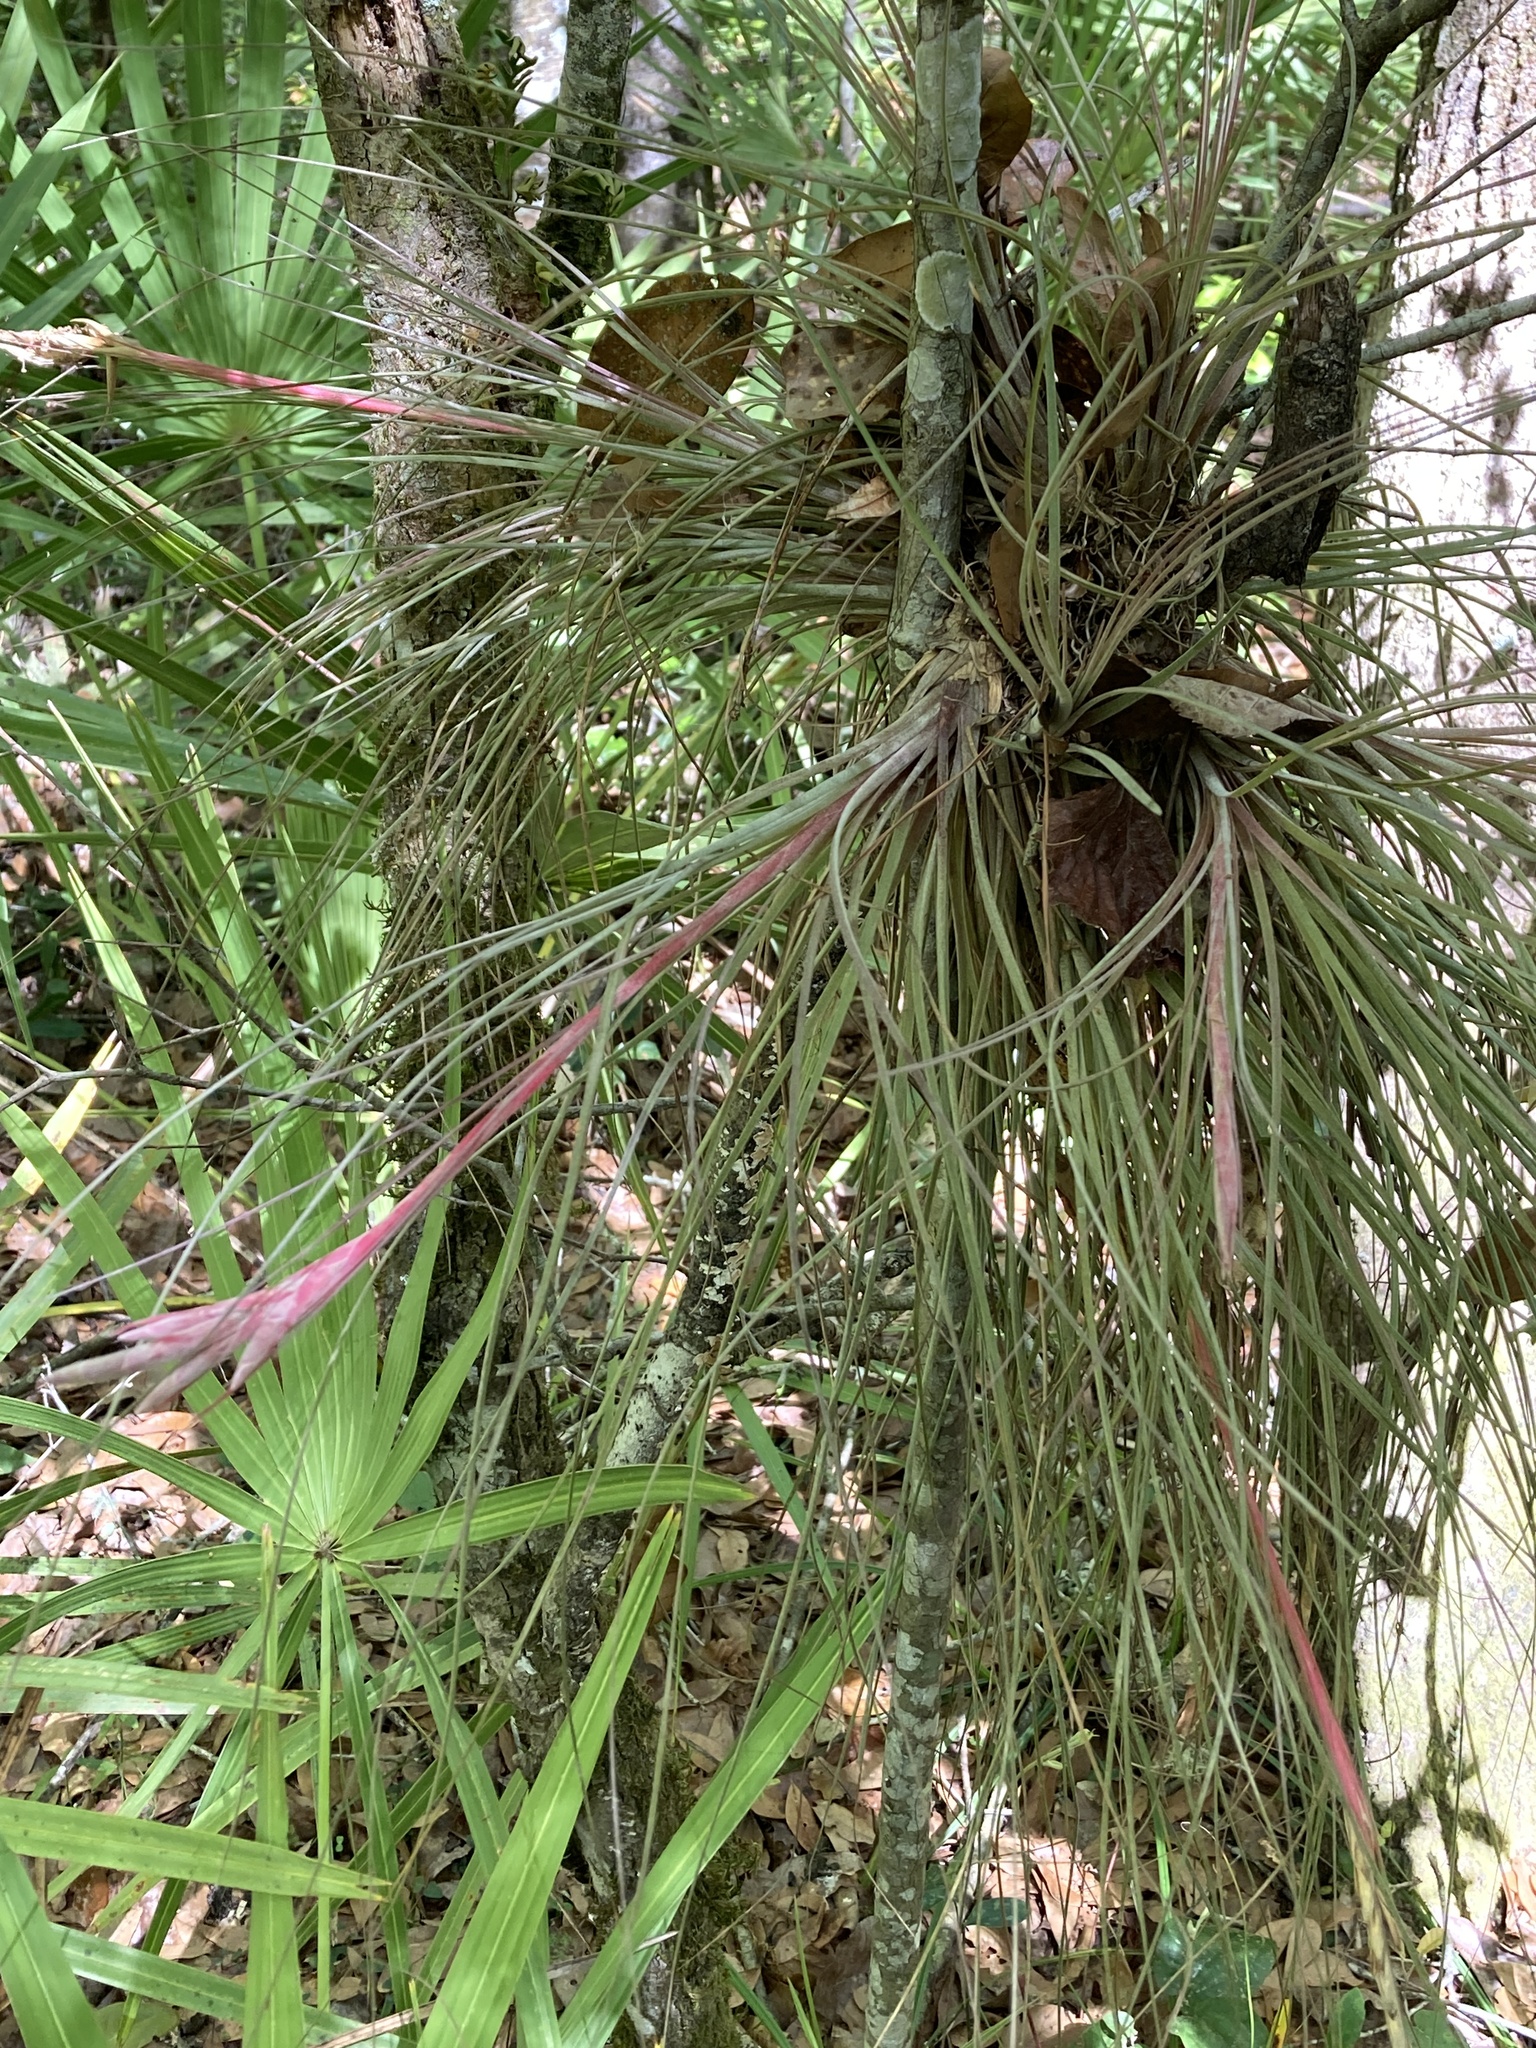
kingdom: Plantae
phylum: Tracheophyta
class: Liliopsida
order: Poales
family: Bromeliaceae
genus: Tillandsia
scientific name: Tillandsia bartramii
